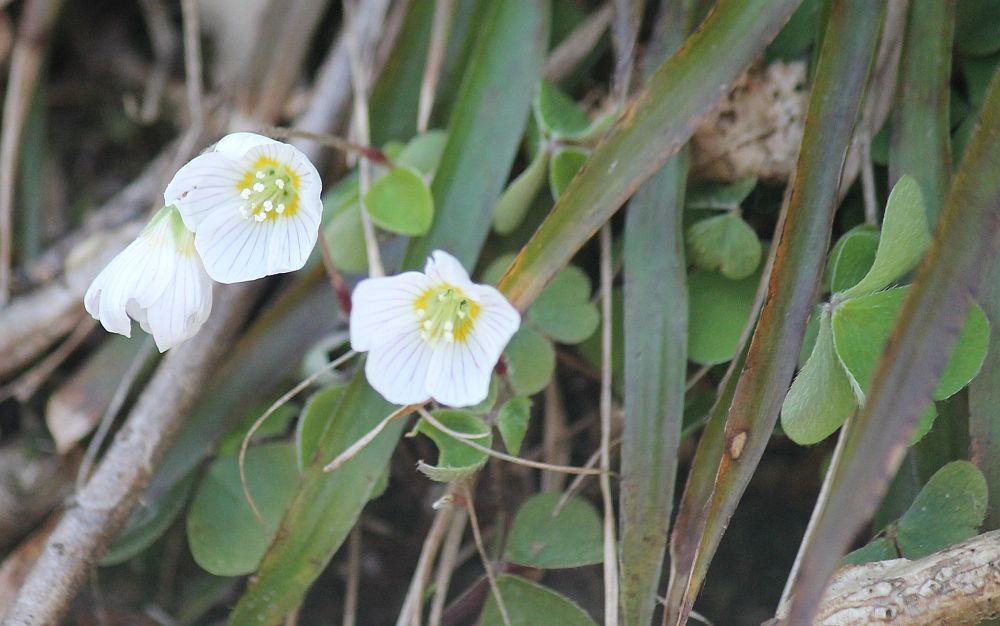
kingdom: Plantae
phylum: Tracheophyta
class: Magnoliopsida
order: Oxalidales
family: Oxalidaceae
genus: Oxalis
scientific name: Oxalis acetosella
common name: Wood-sorrel
